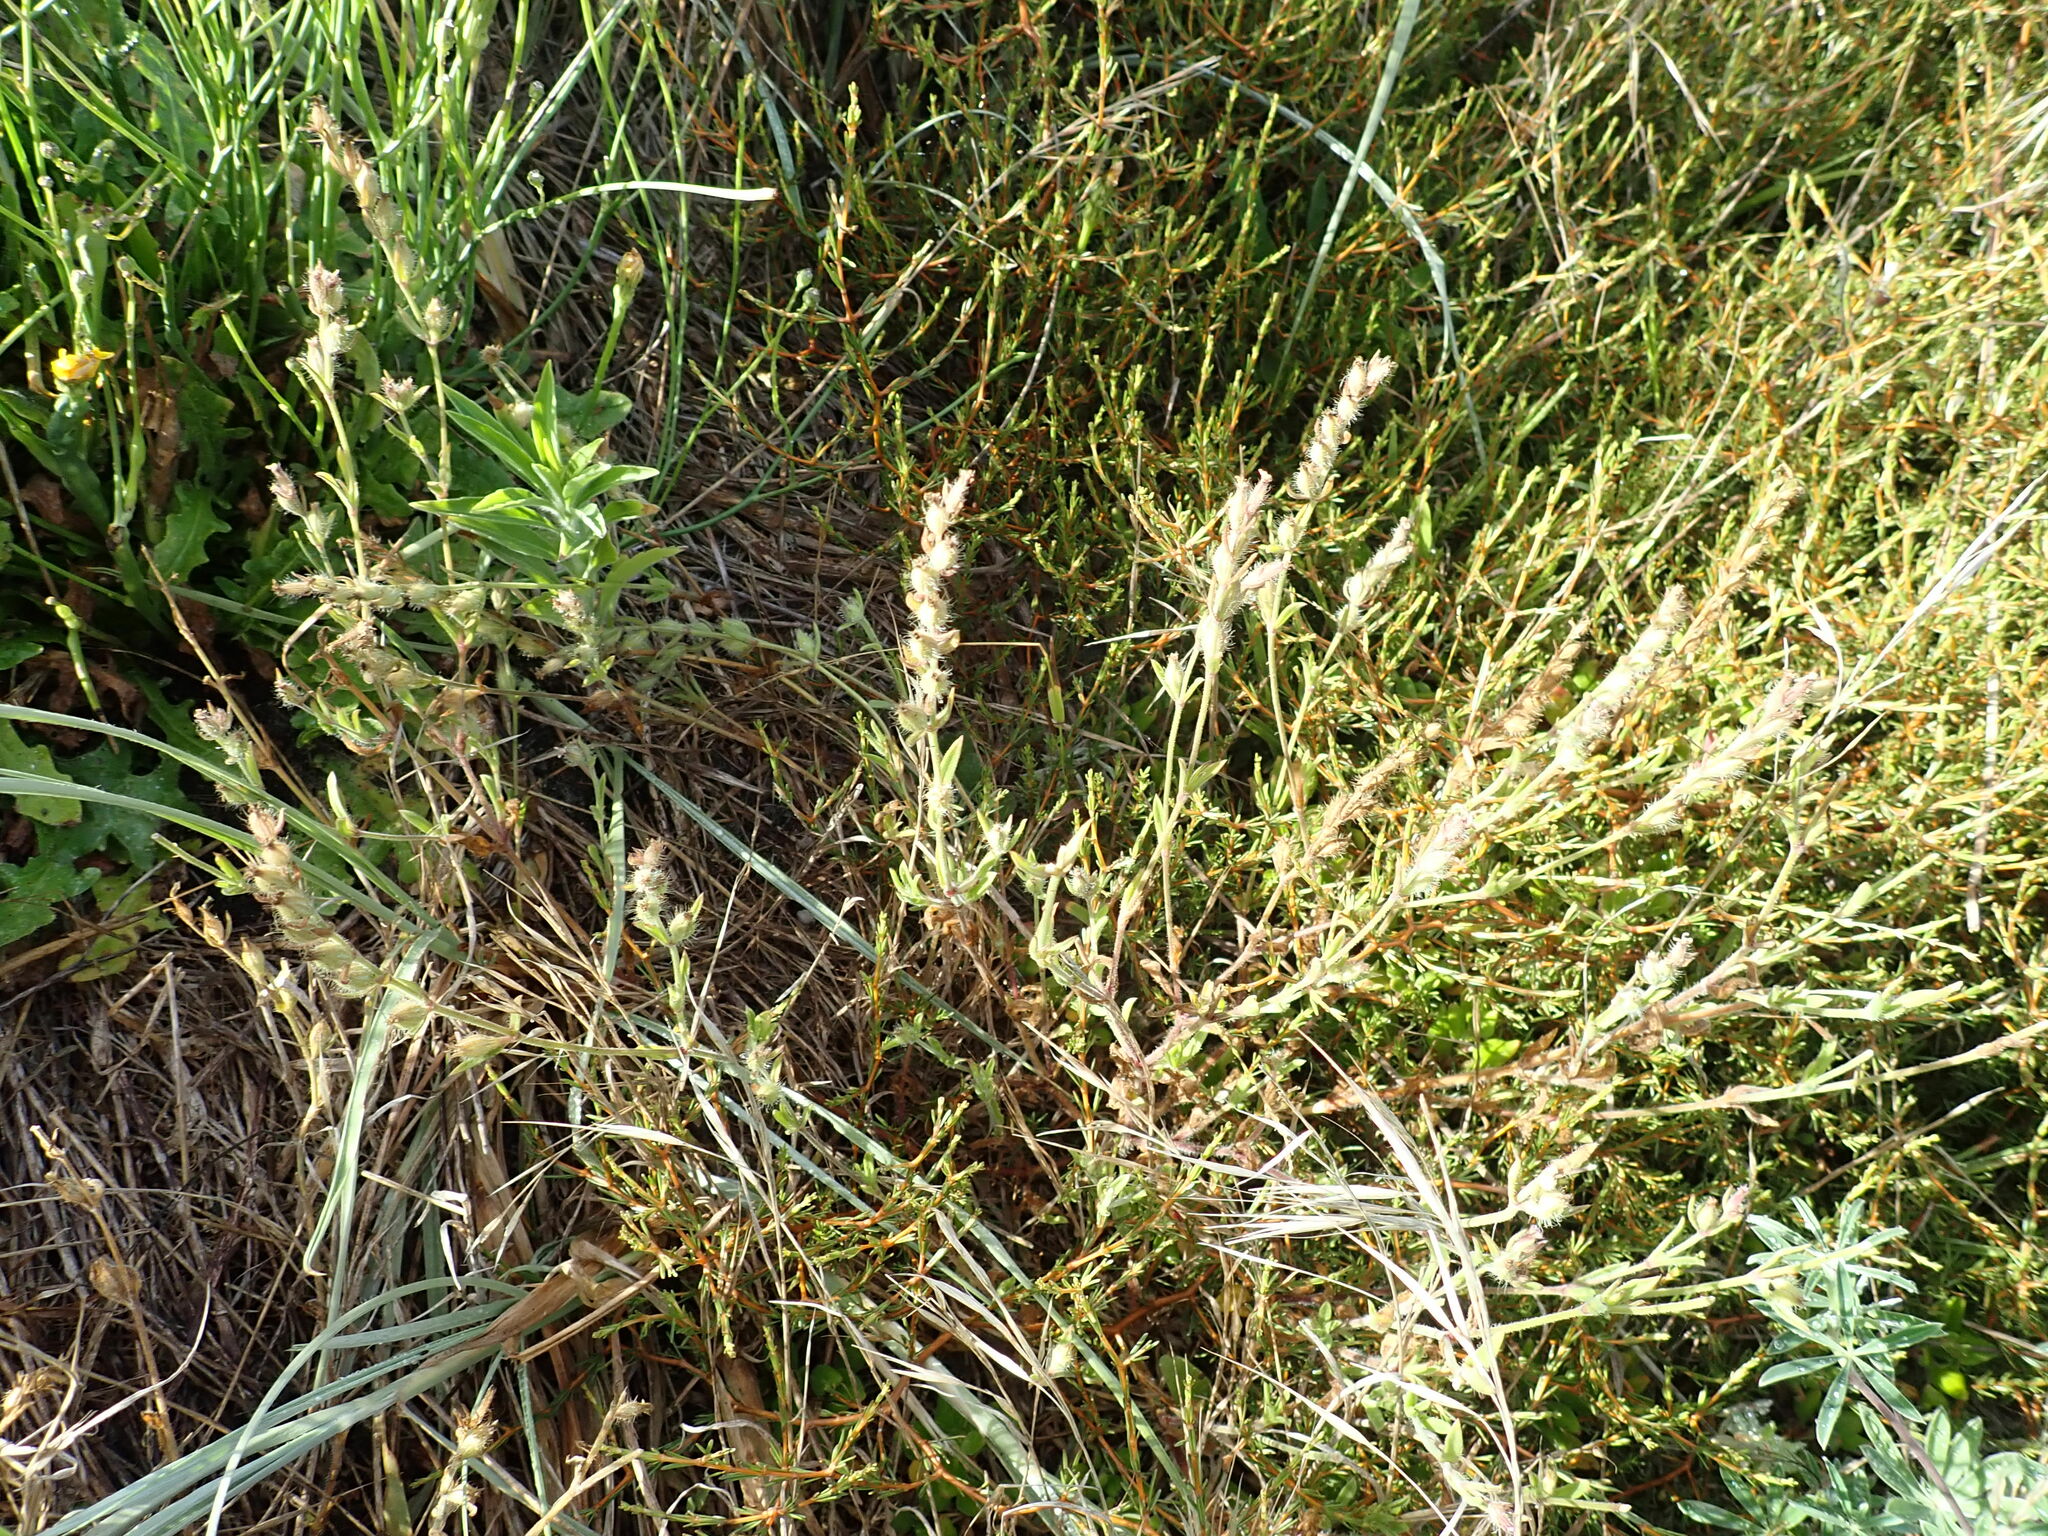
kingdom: Plantae
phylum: Tracheophyta
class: Magnoliopsida
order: Caryophyllales
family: Caryophyllaceae
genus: Silene
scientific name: Silene gallica
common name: Small-flowered catchfly
